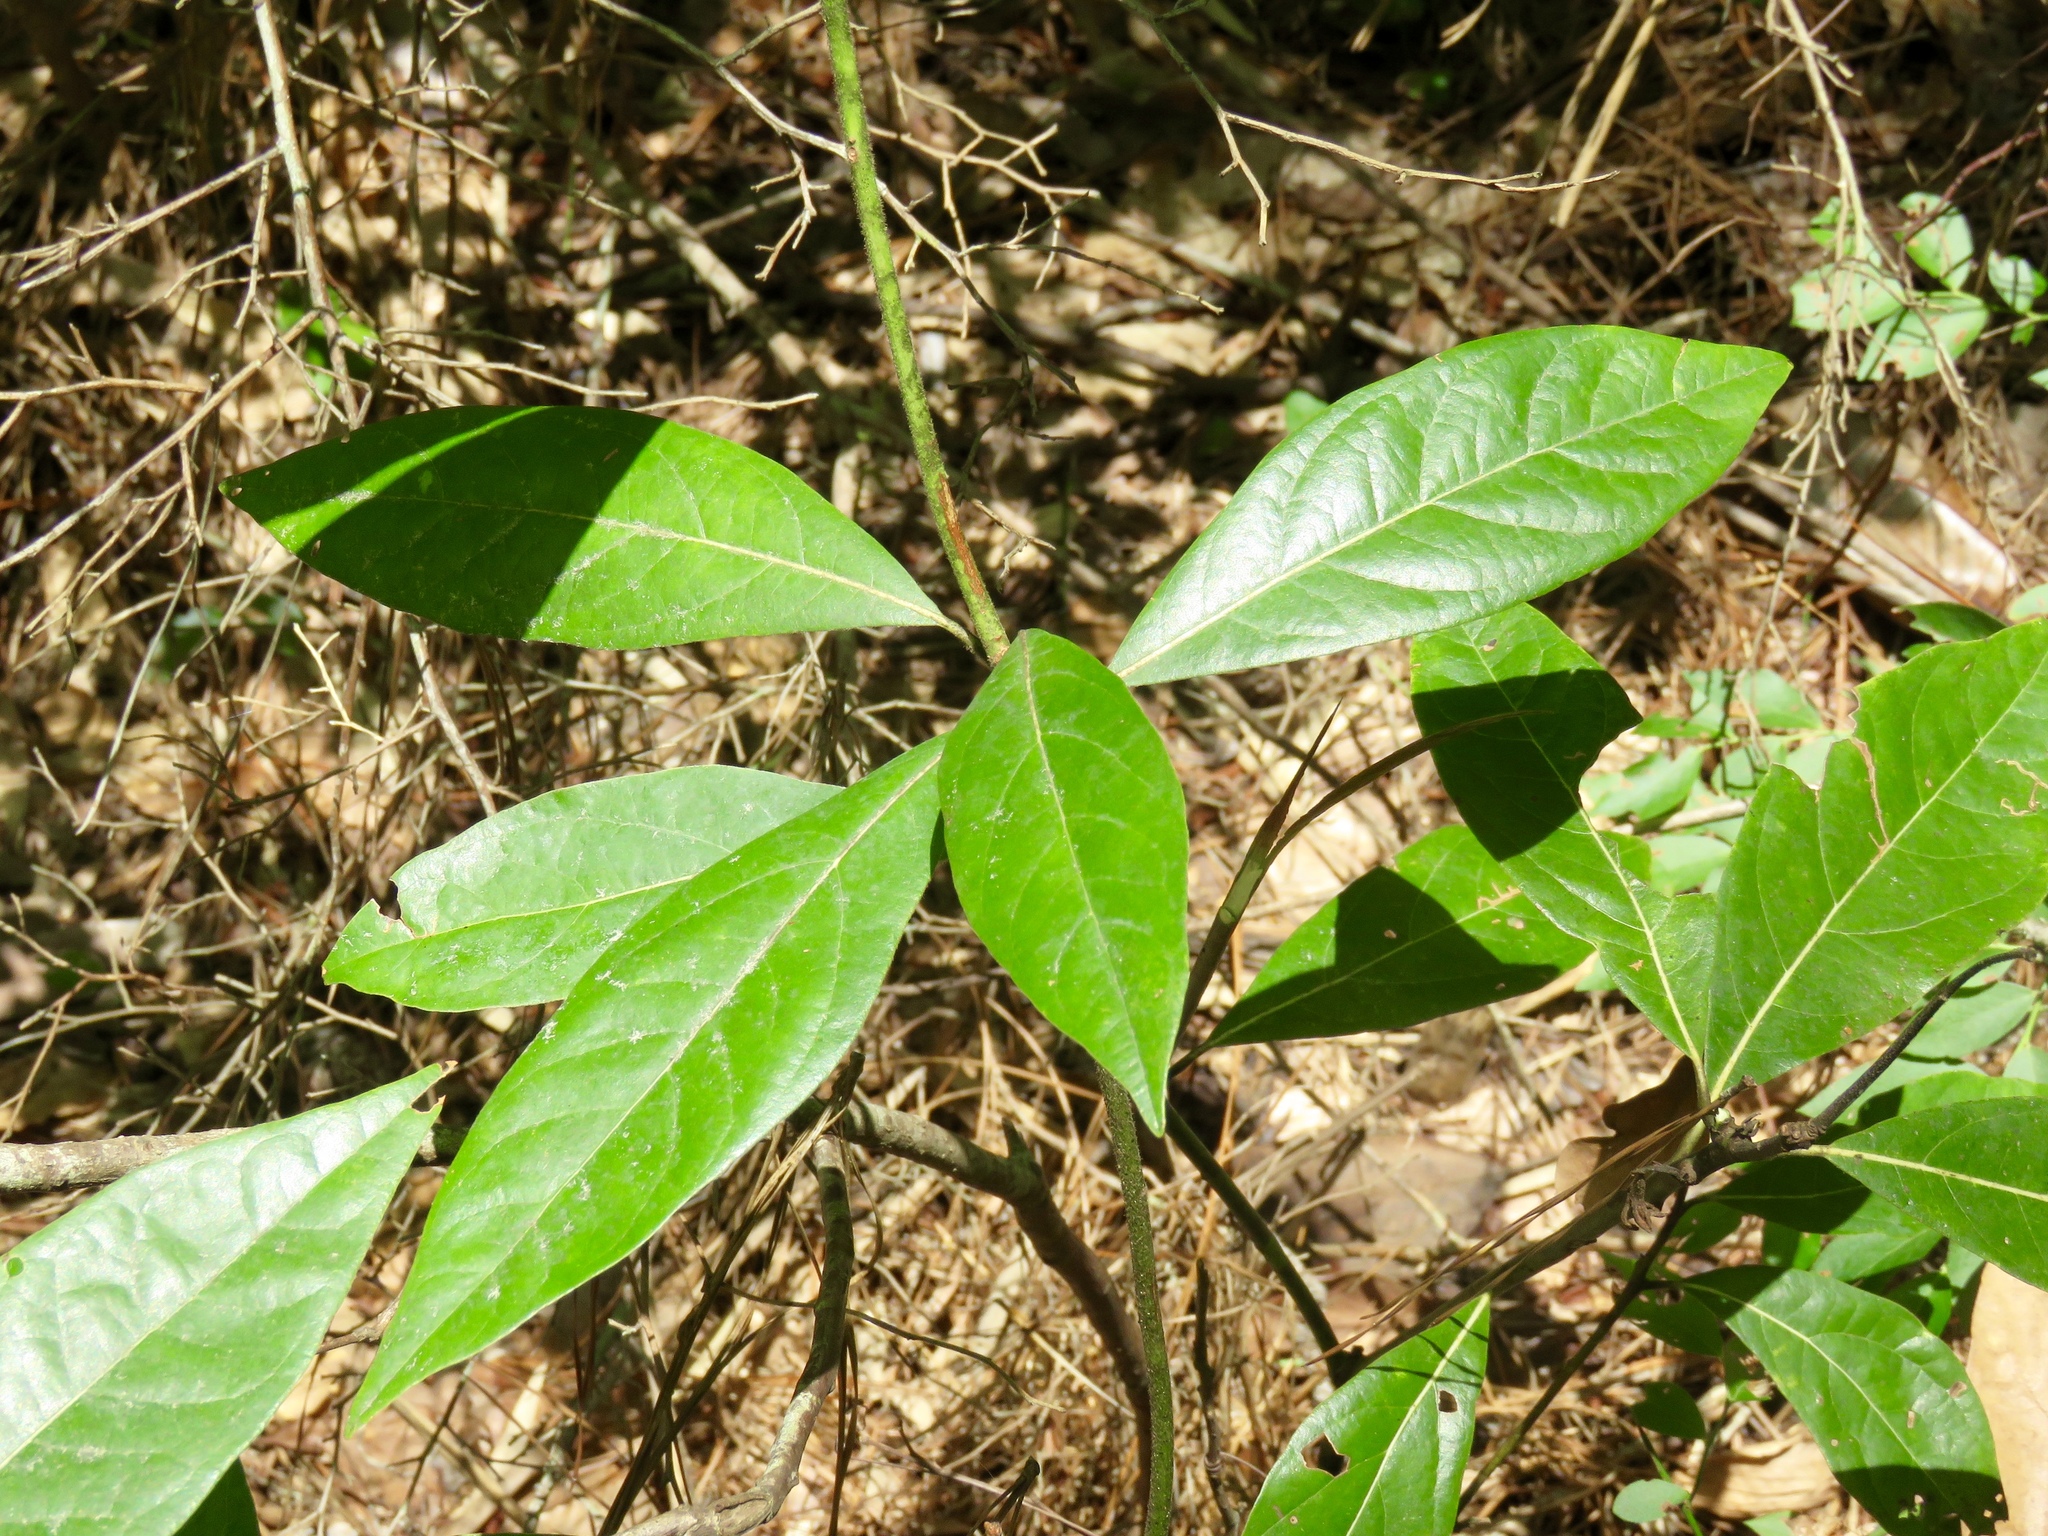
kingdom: Plantae
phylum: Tracheophyta
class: Magnoliopsida
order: Laurales
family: Lauraceae
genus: Persea
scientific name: Persea palustris
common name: Swampbay
